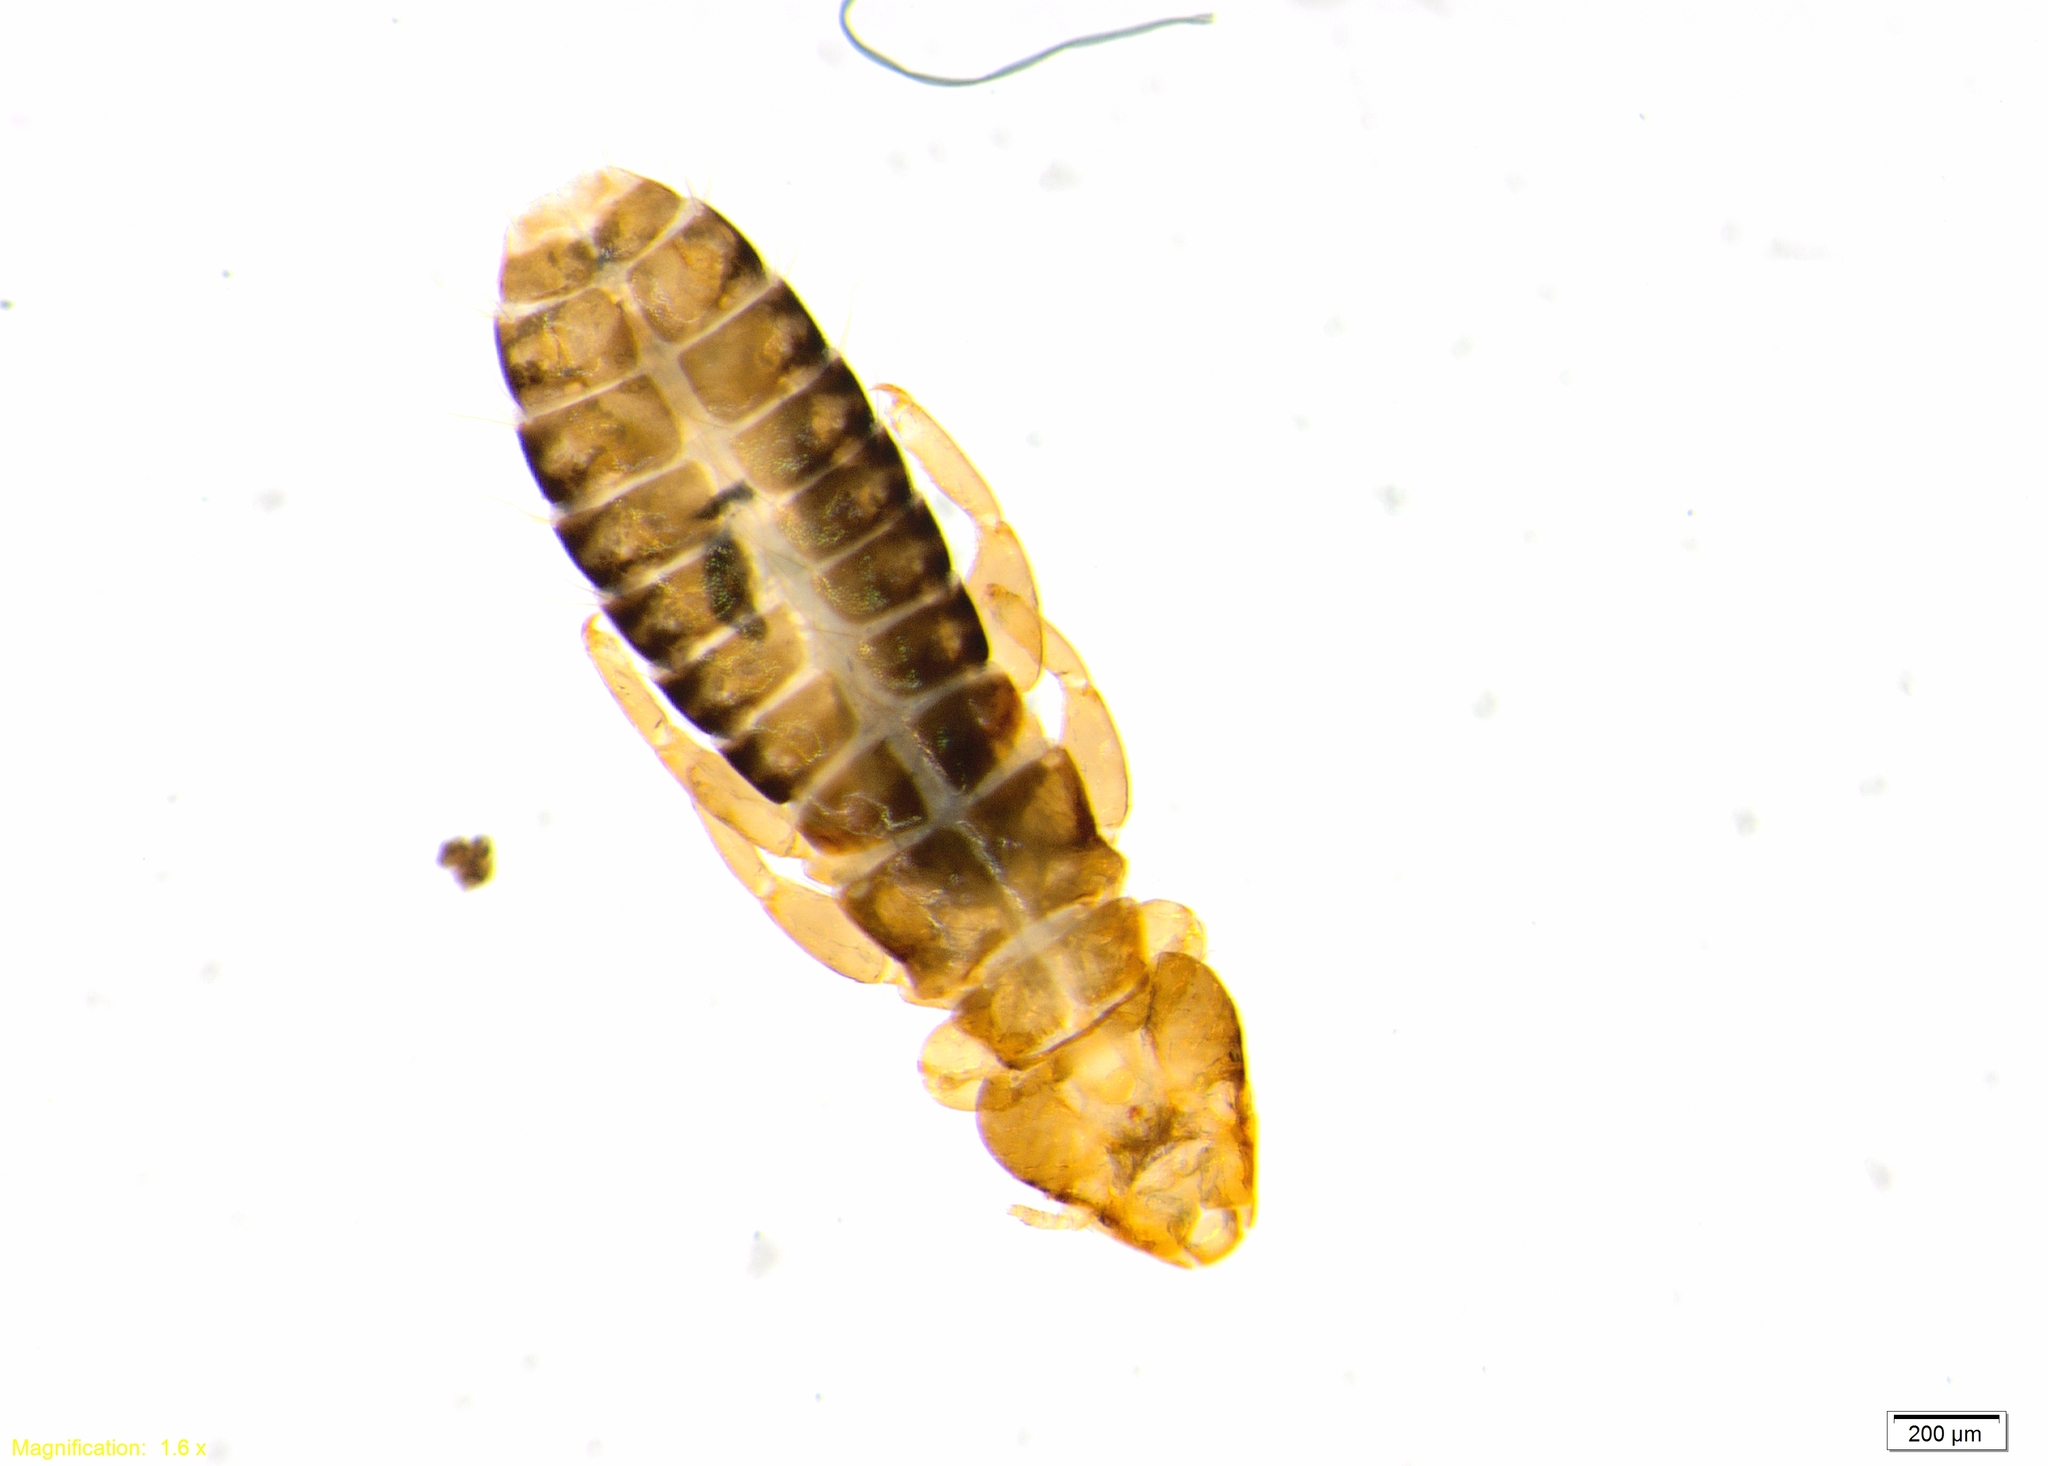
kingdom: Animalia
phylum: Arthropoda
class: Insecta
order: Psocodea
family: Philopteridae
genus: Pectinopygus
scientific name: Pectinopygus varius
